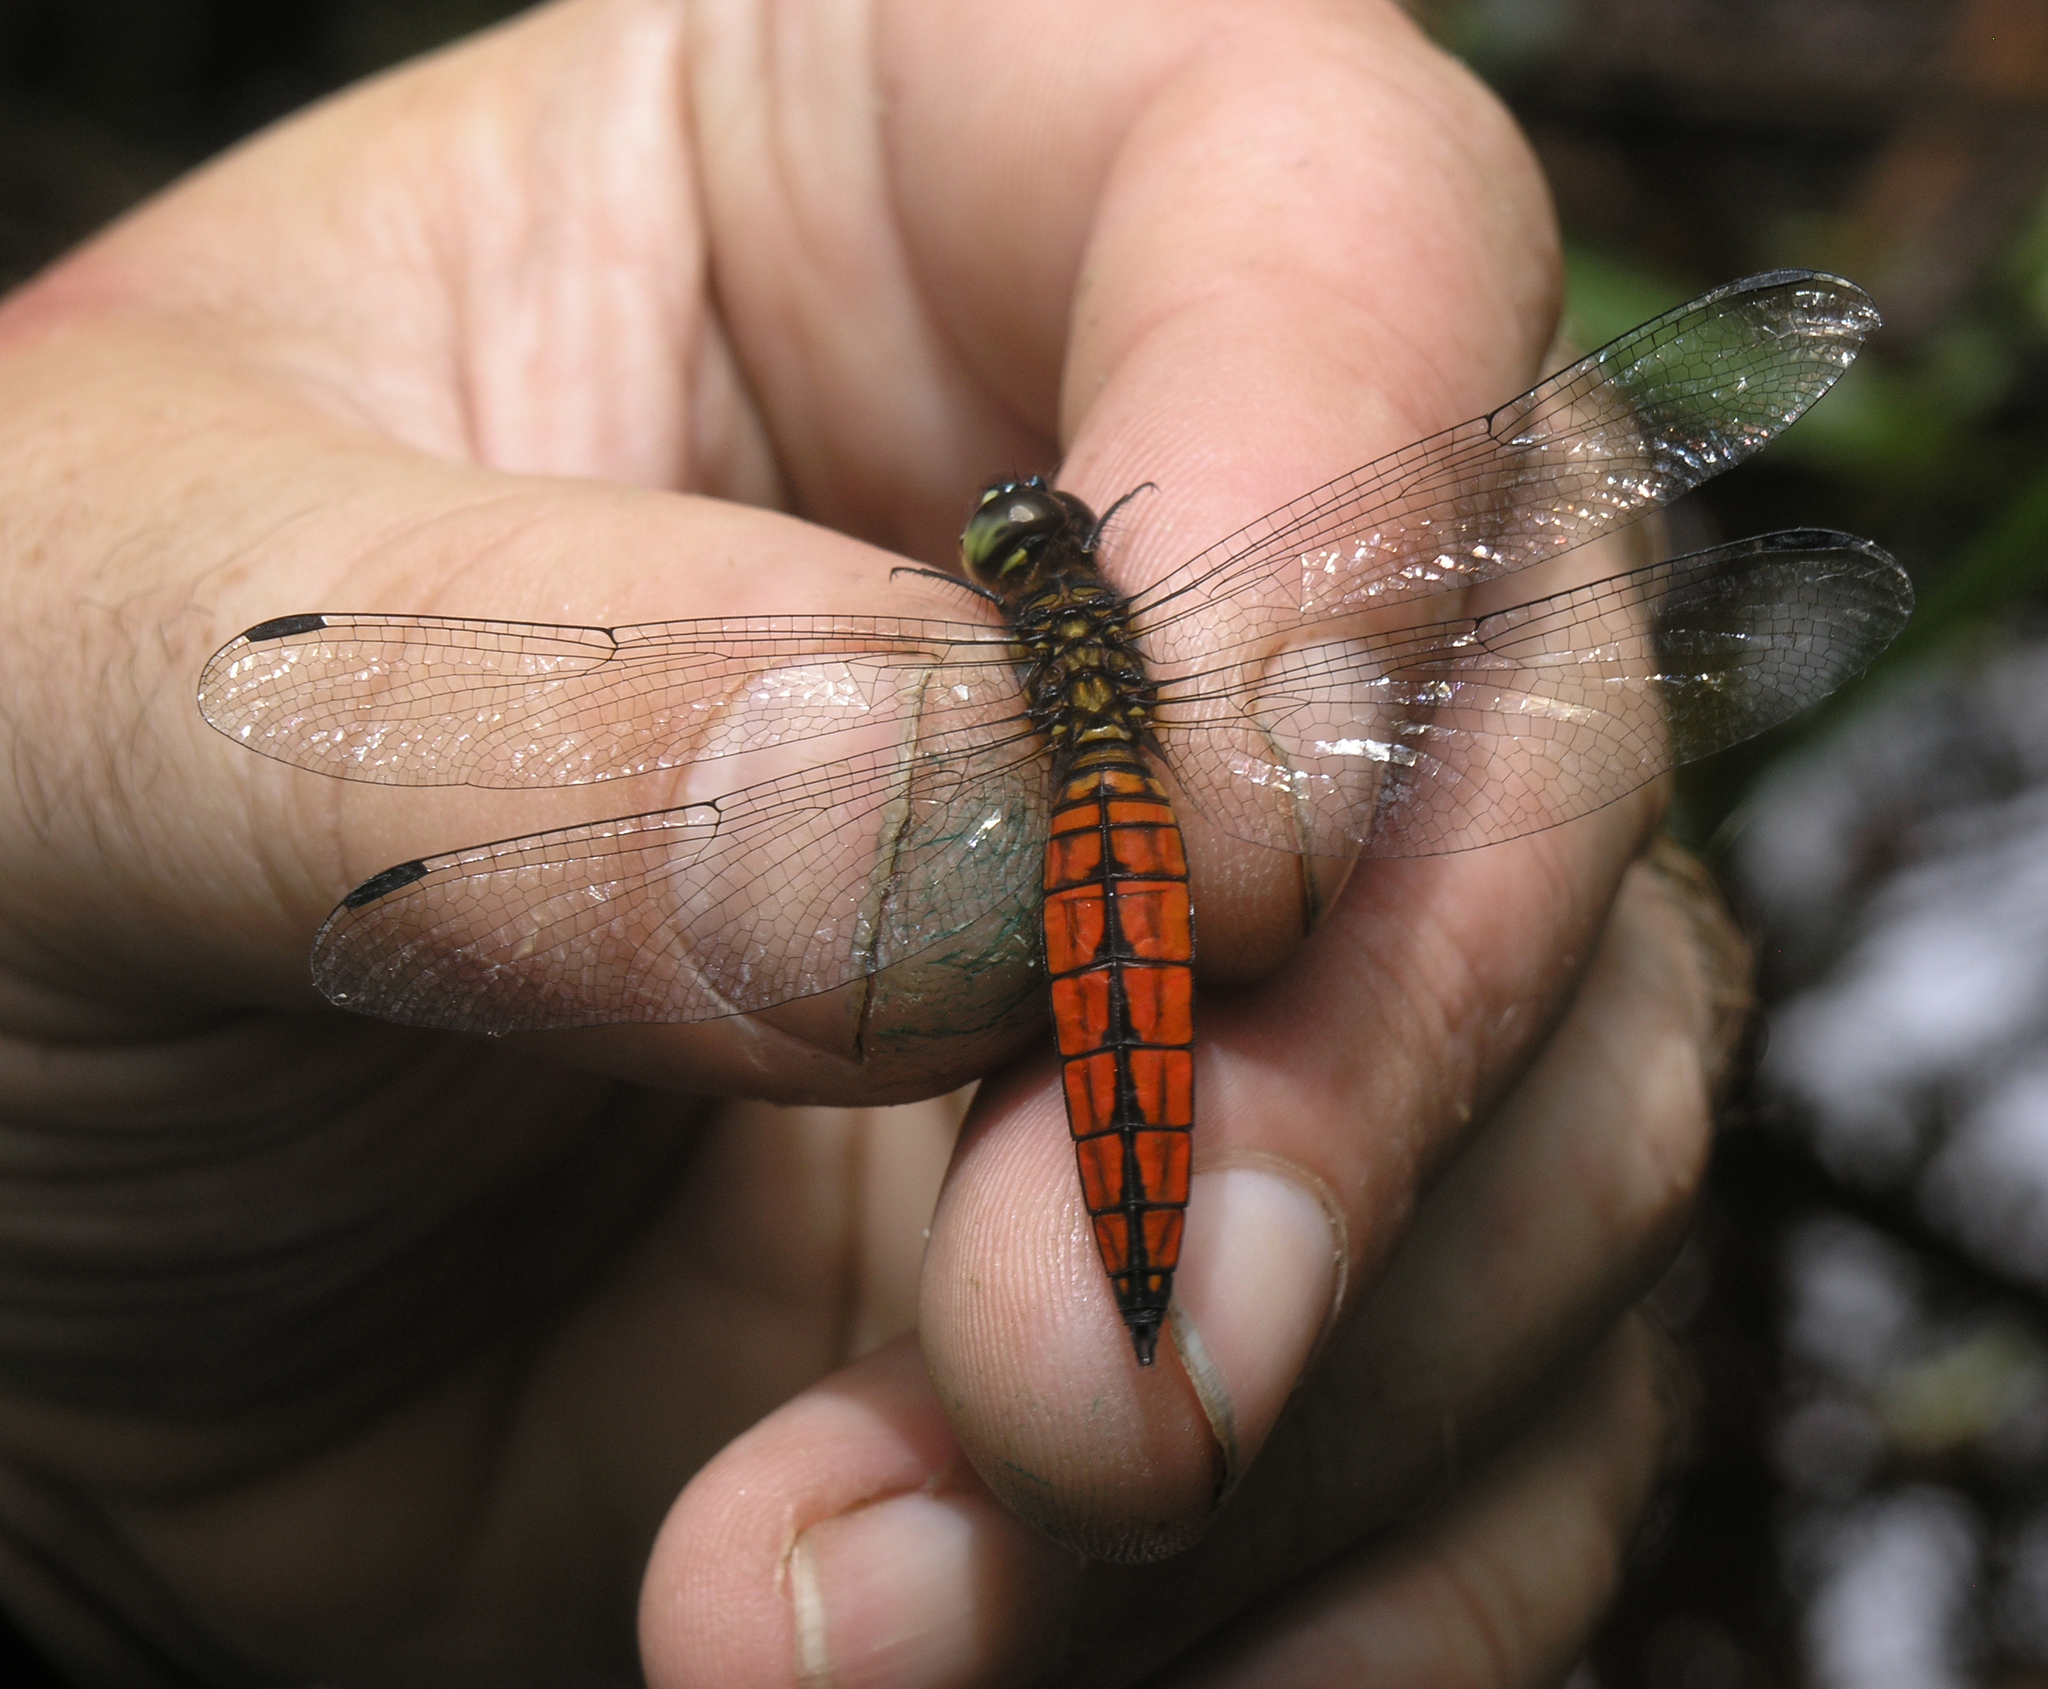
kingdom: Animalia
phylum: Arthropoda
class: Insecta
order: Odonata
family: Libellulidae
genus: Lyriothemis
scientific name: Lyriothemis elegantissima
